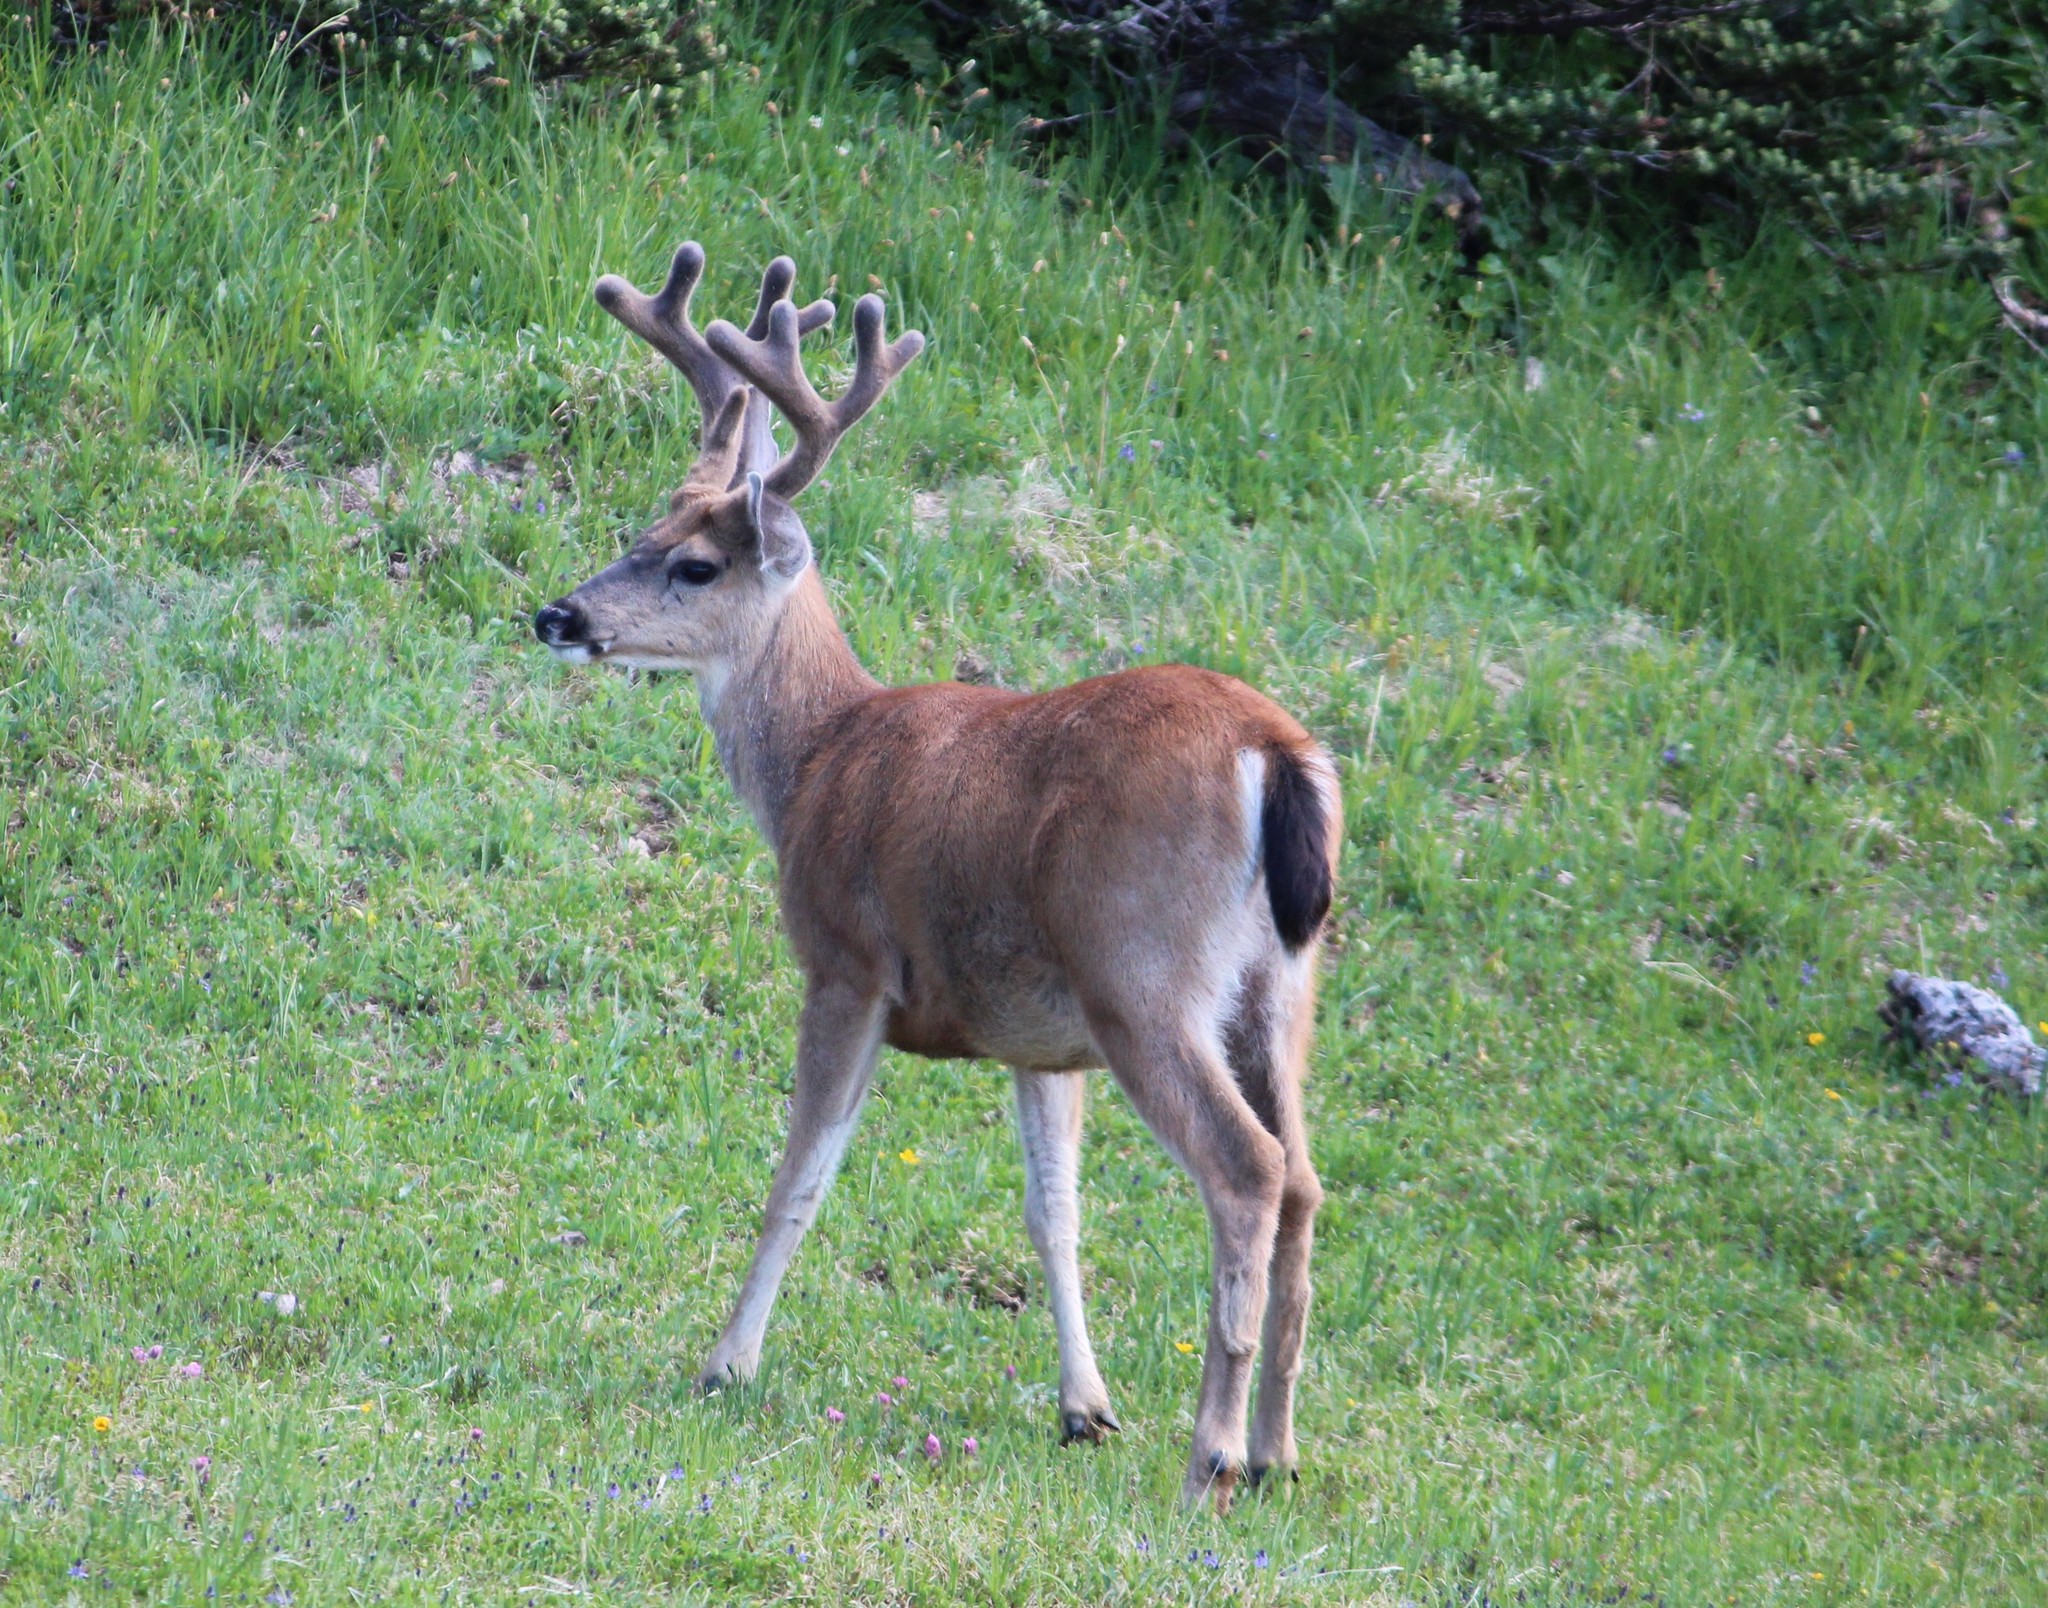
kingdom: Animalia
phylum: Chordata
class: Mammalia
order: Artiodactyla
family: Cervidae
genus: Odocoileus
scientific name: Odocoileus hemionus
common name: Mule deer
